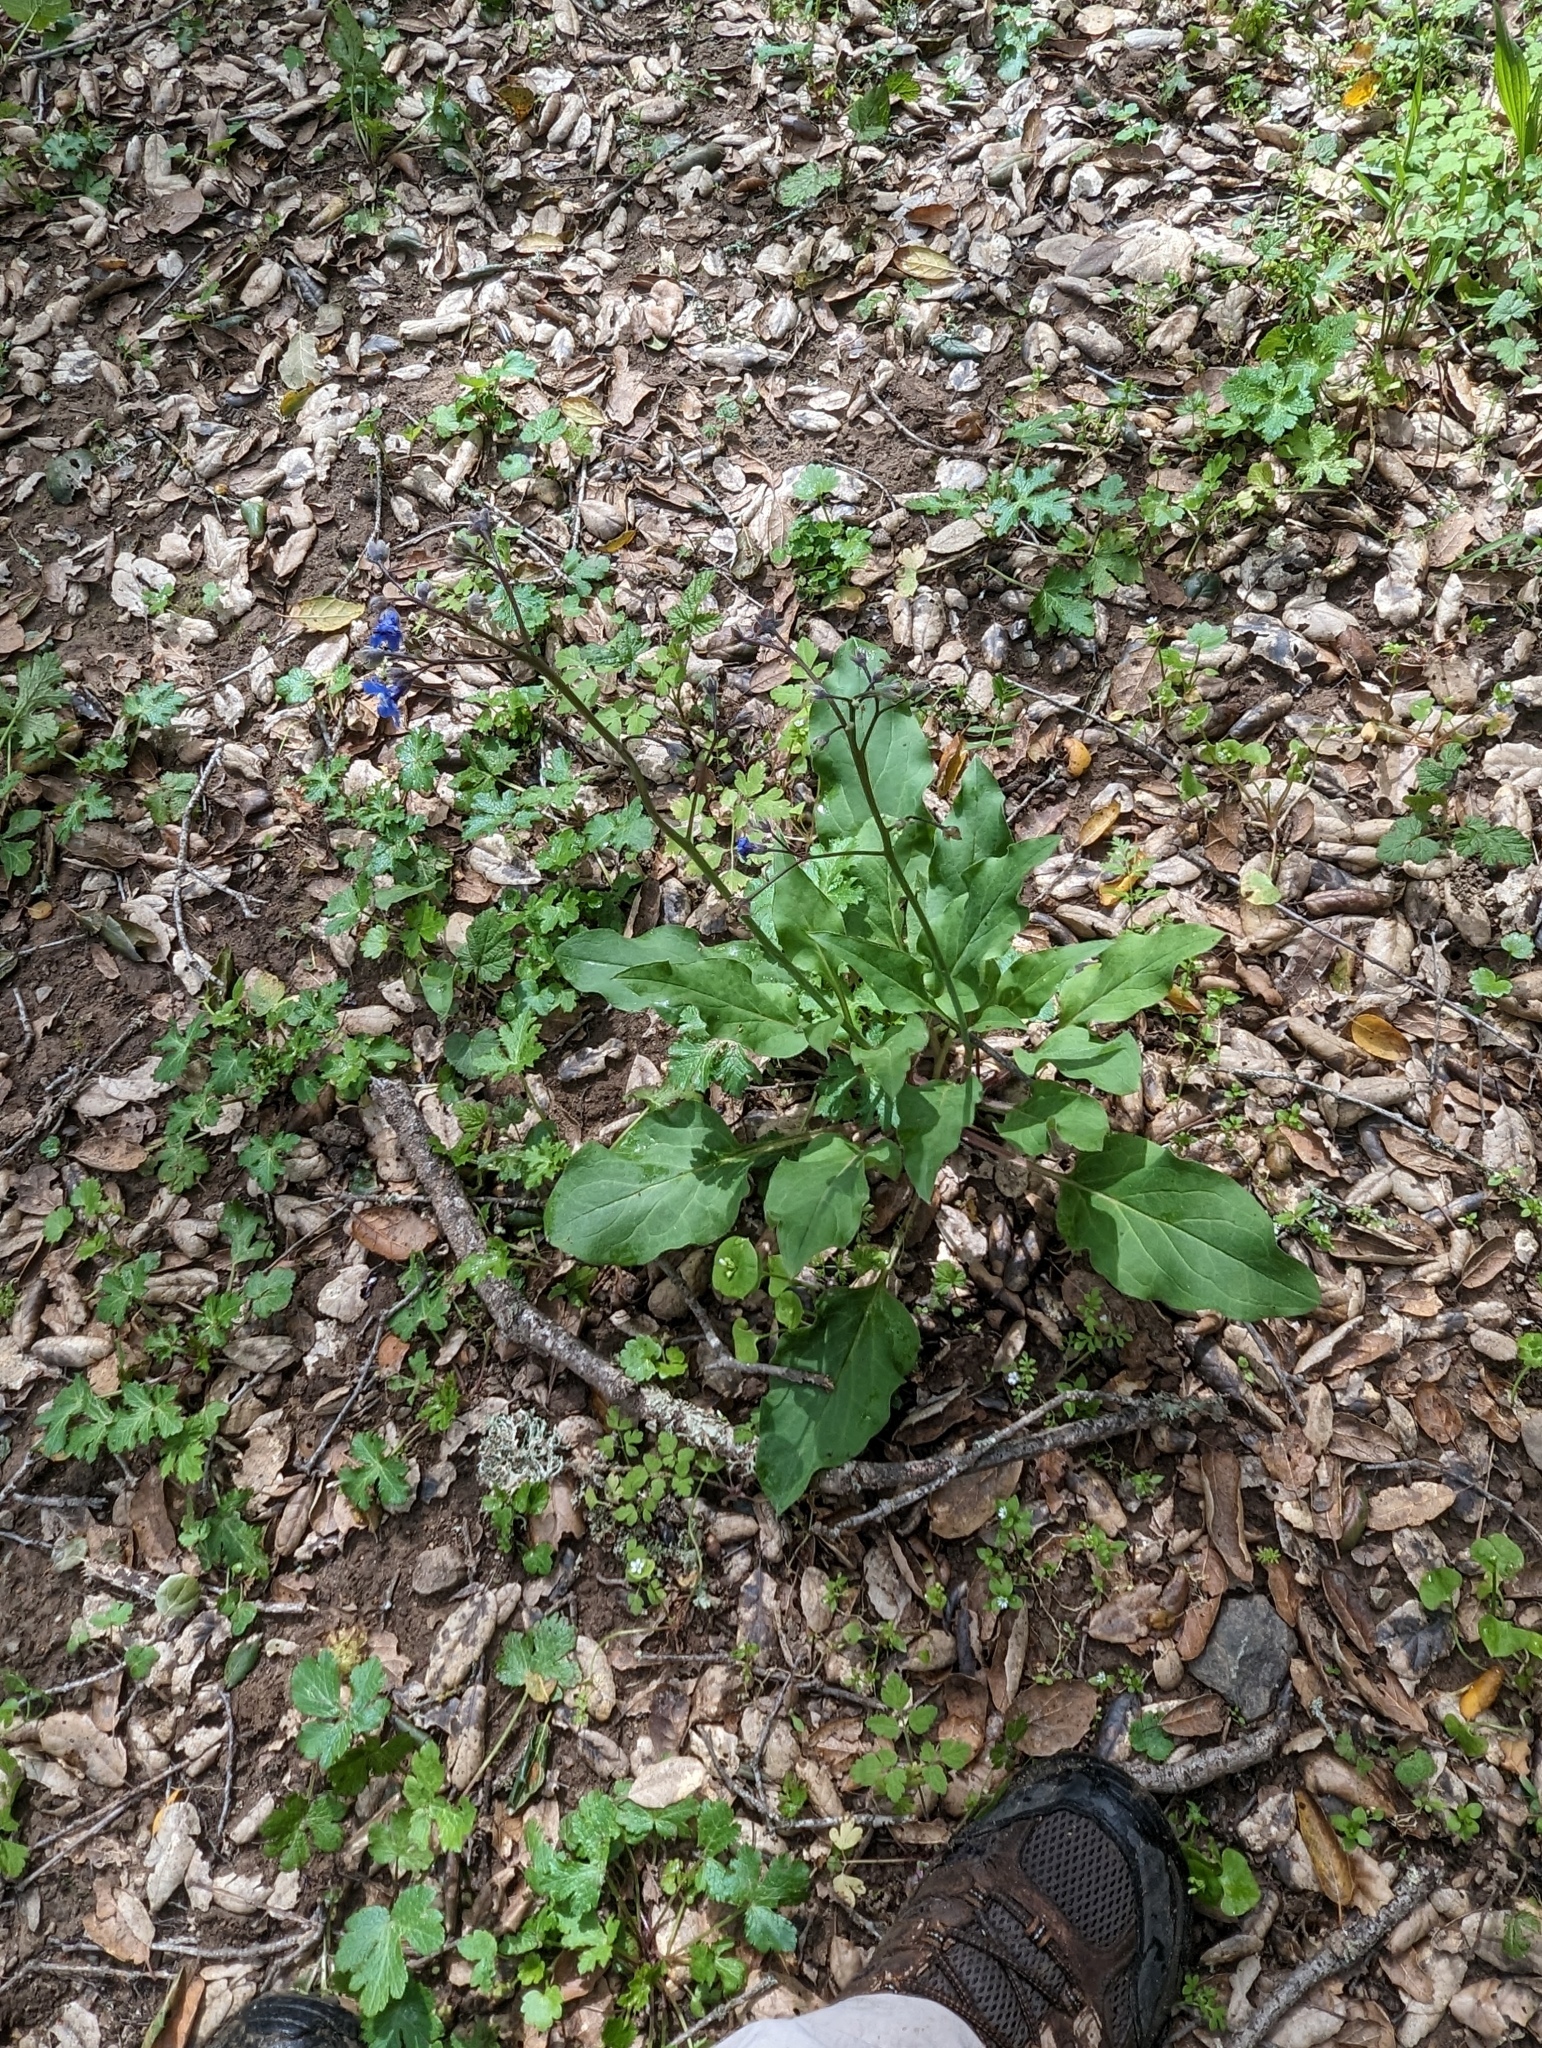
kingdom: Plantae
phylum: Tracheophyta
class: Magnoliopsida
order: Boraginales
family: Boraginaceae
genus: Adelinia
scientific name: Adelinia grande
